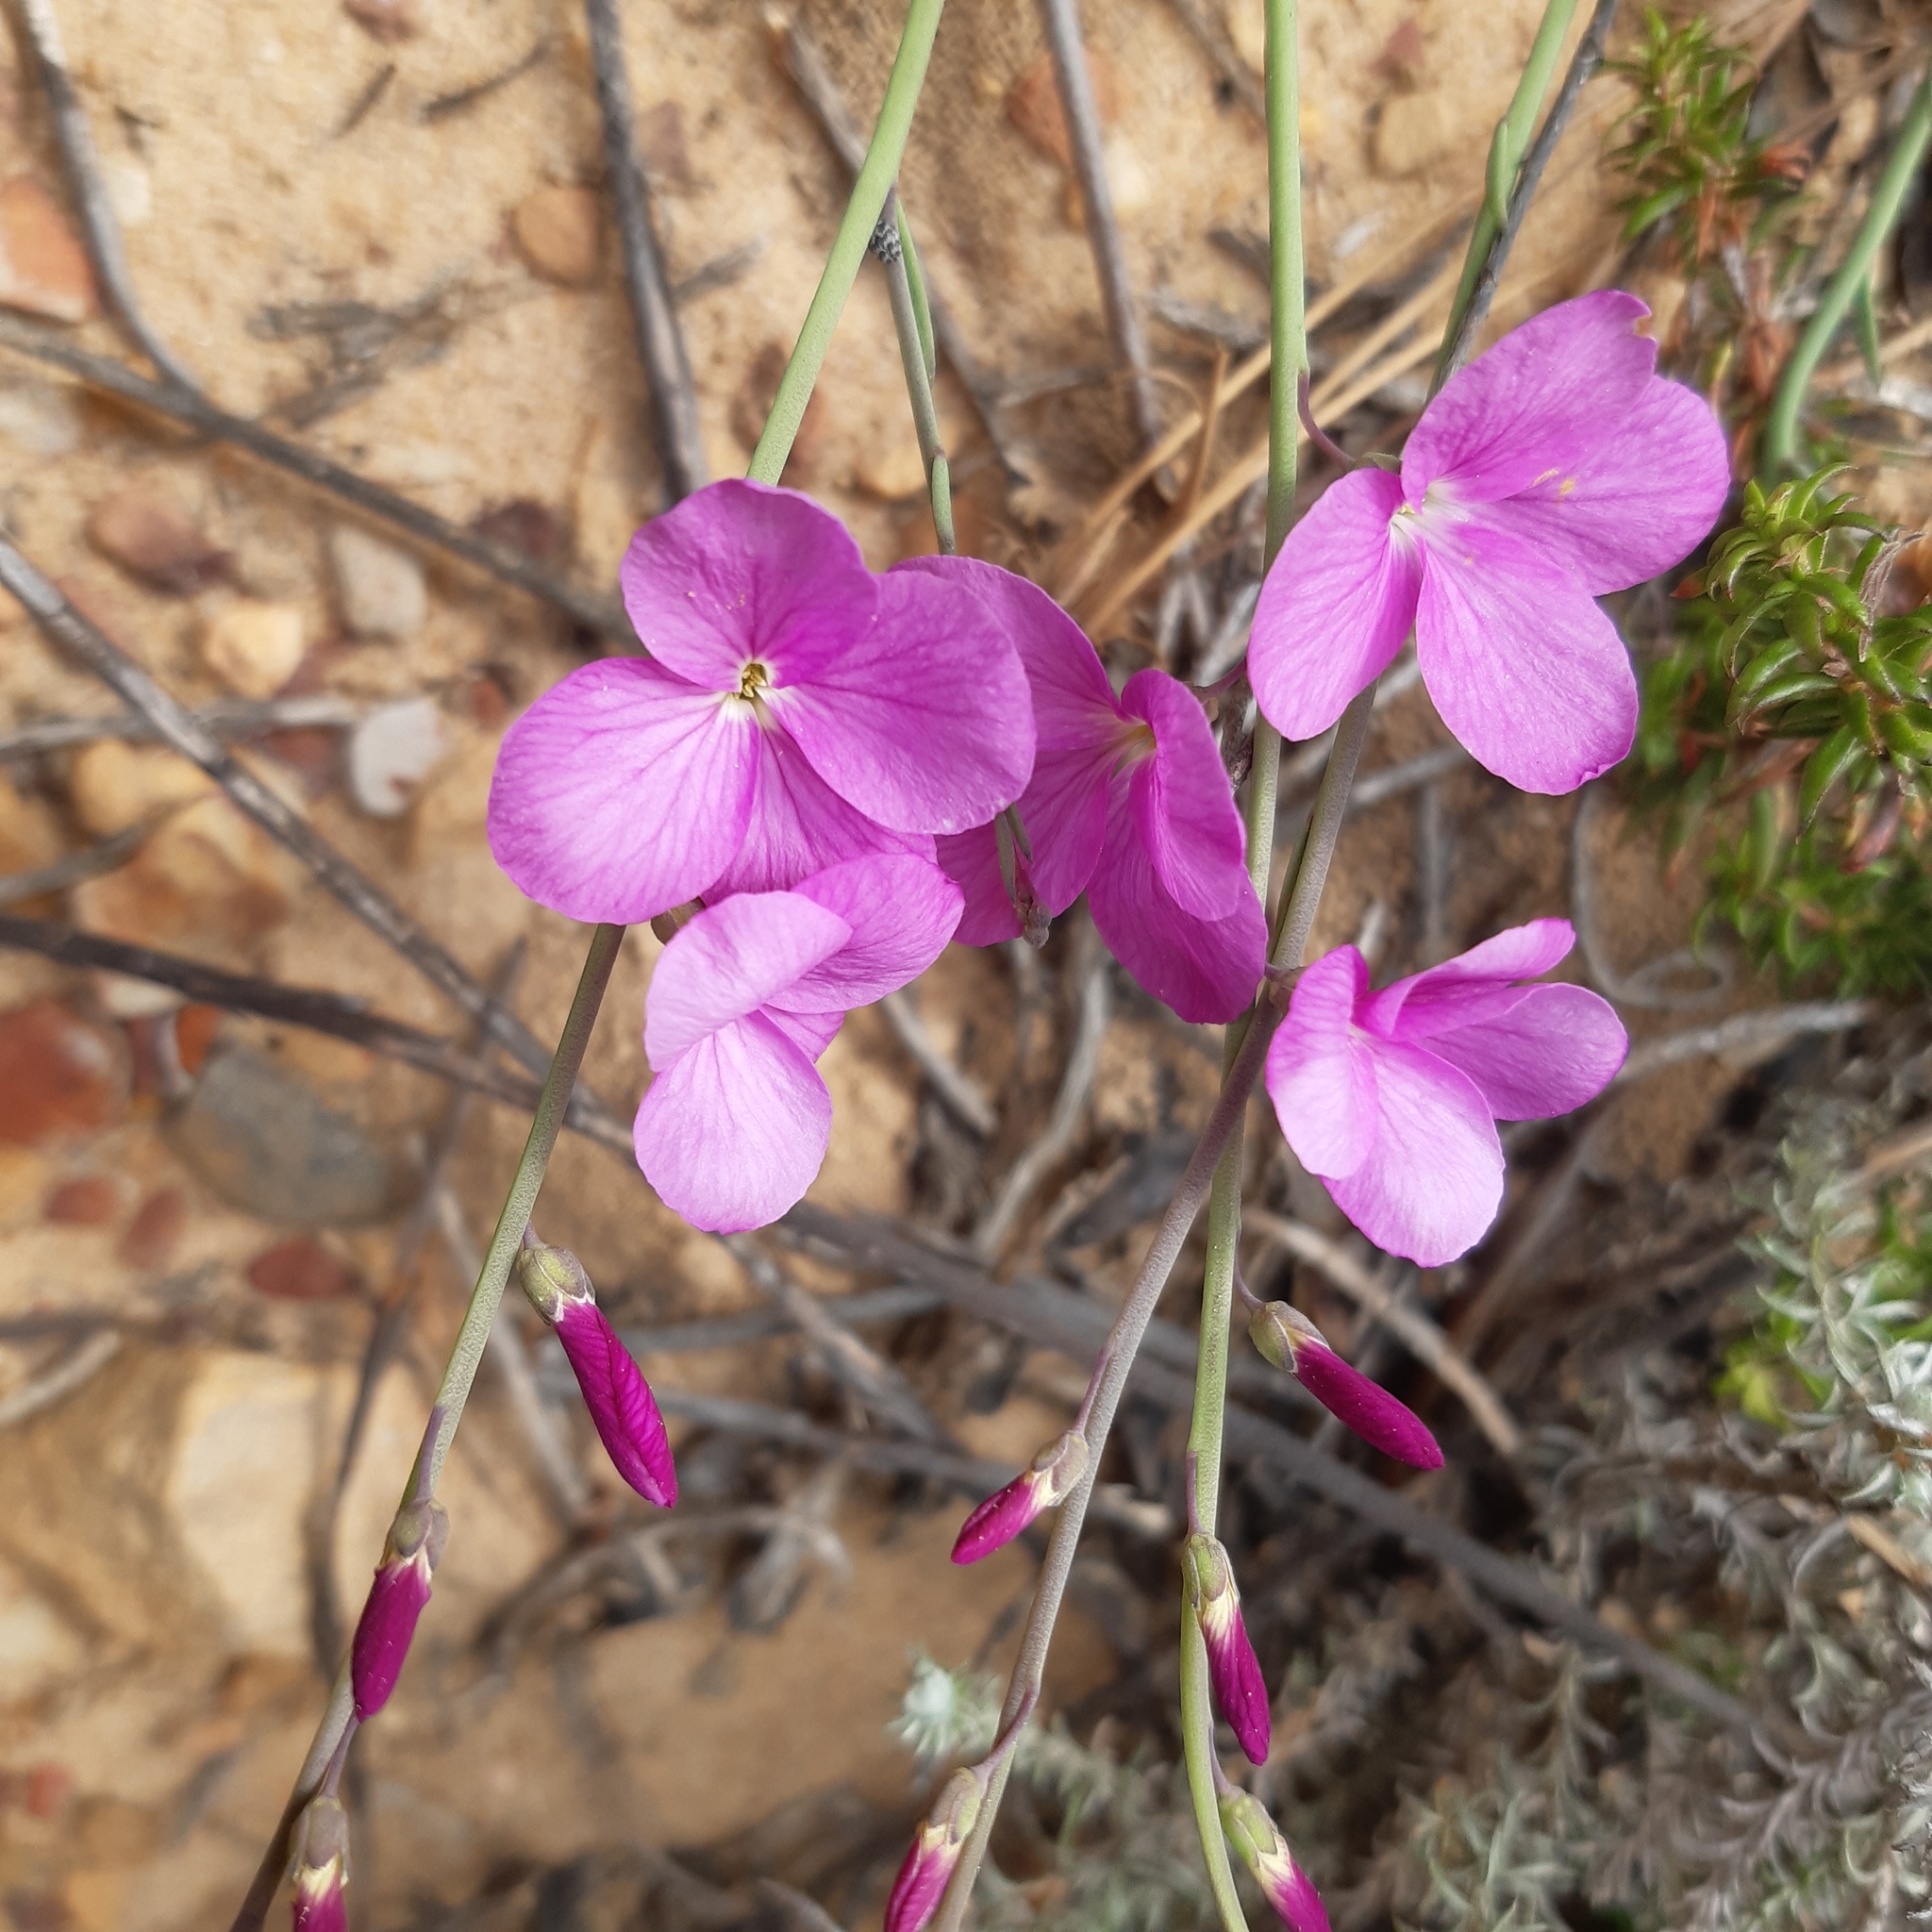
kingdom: Plantae
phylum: Tracheophyta
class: Magnoliopsida
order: Brassicales
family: Brassicaceae
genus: Heliophila
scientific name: Heliophila juncea
